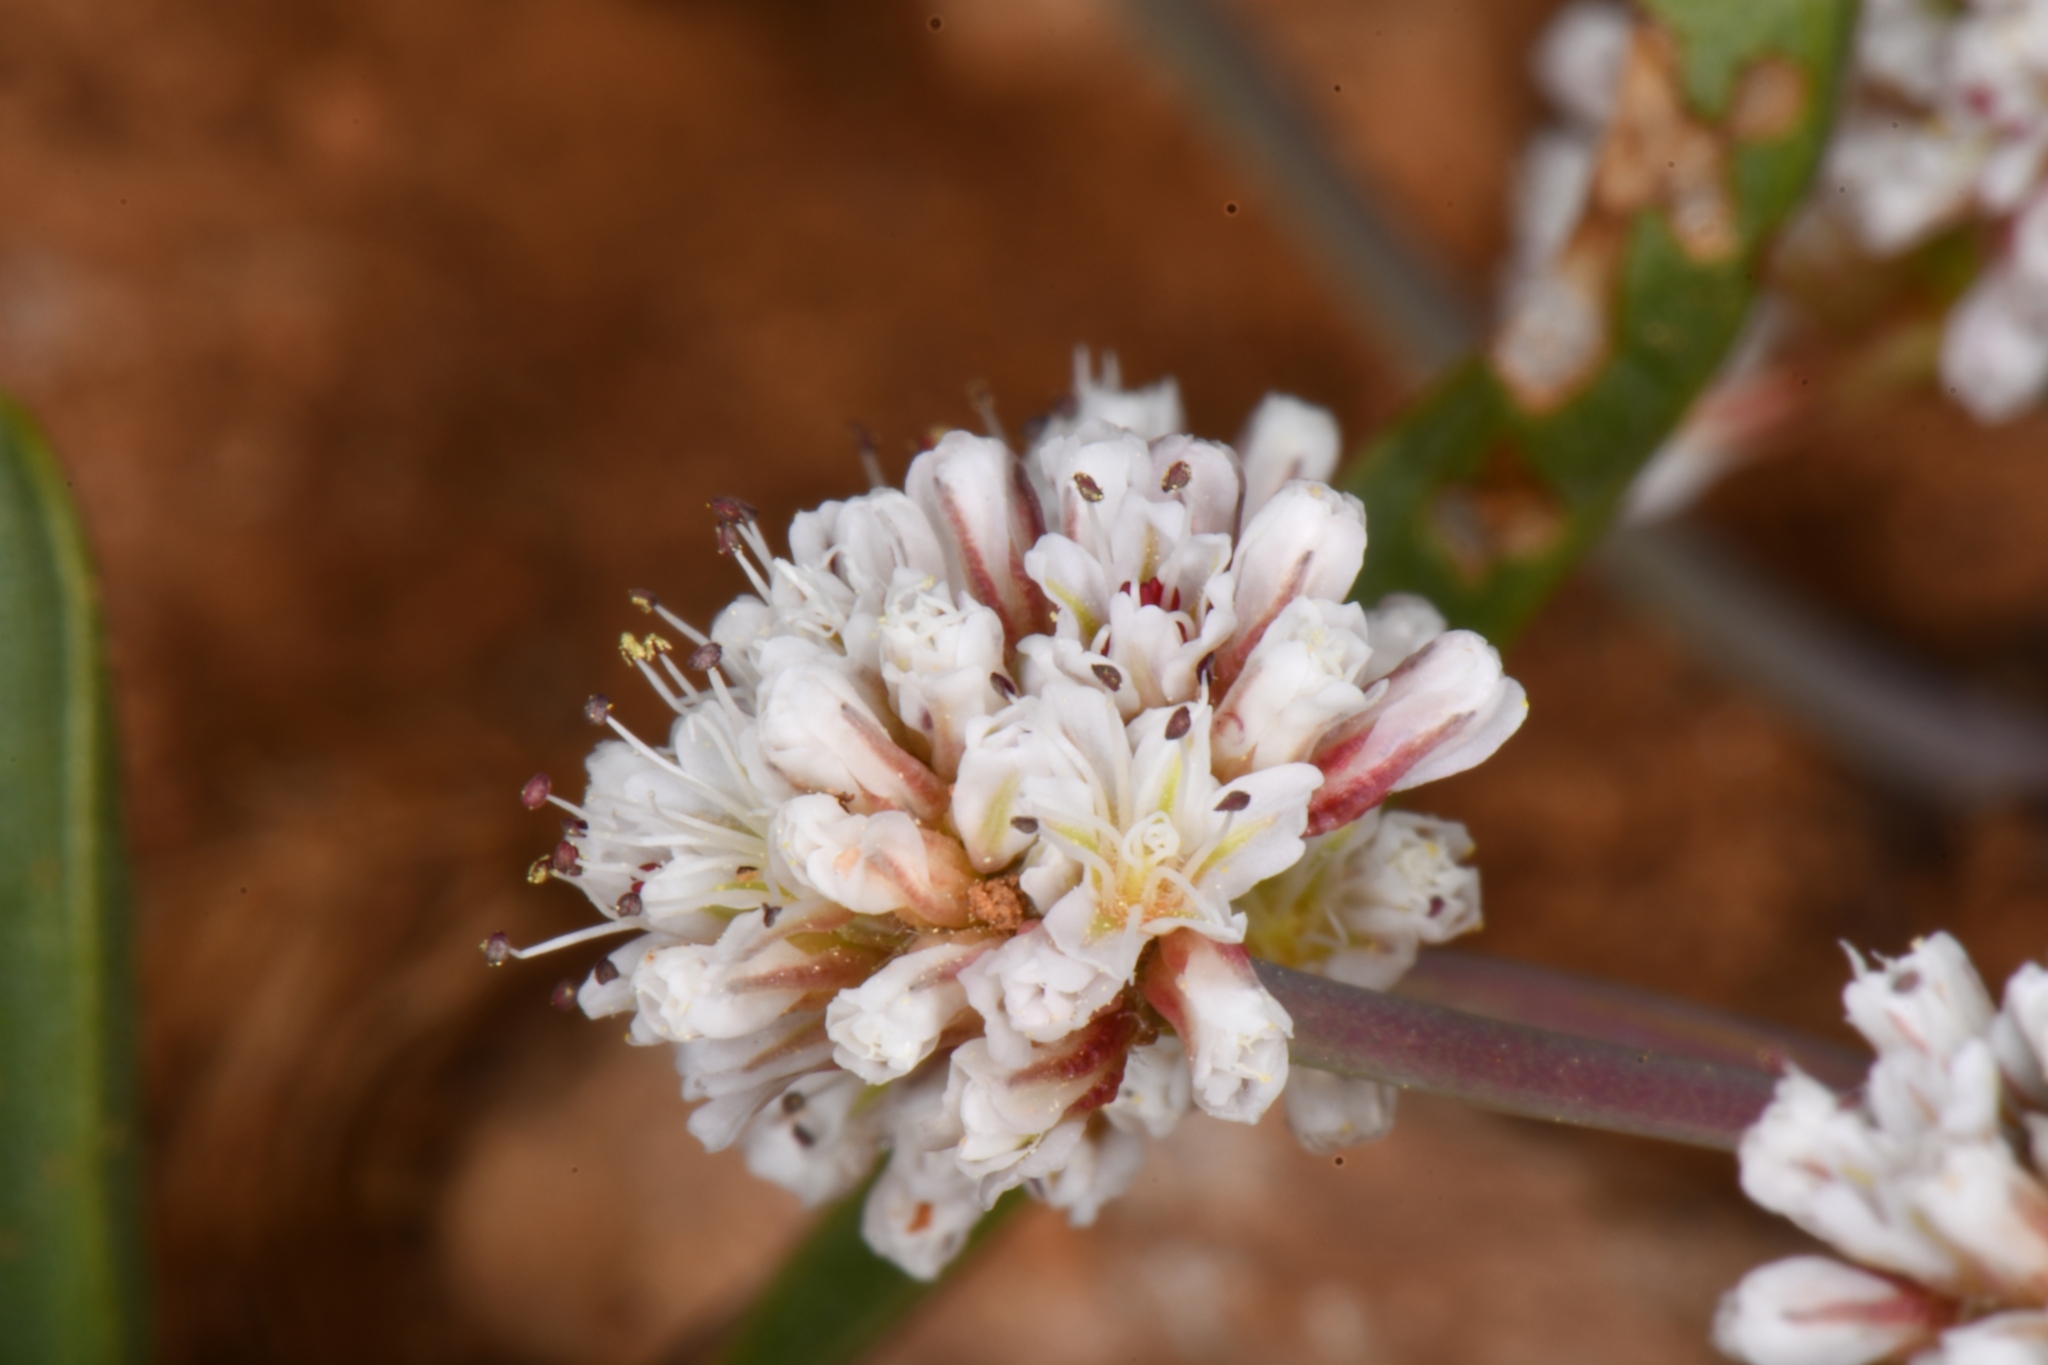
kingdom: Plantae
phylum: Tracheophyta
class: Magnoliopsida
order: Caryophyllales
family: Polygonaceae
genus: Eriogonum
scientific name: Eriogonum panguicense
